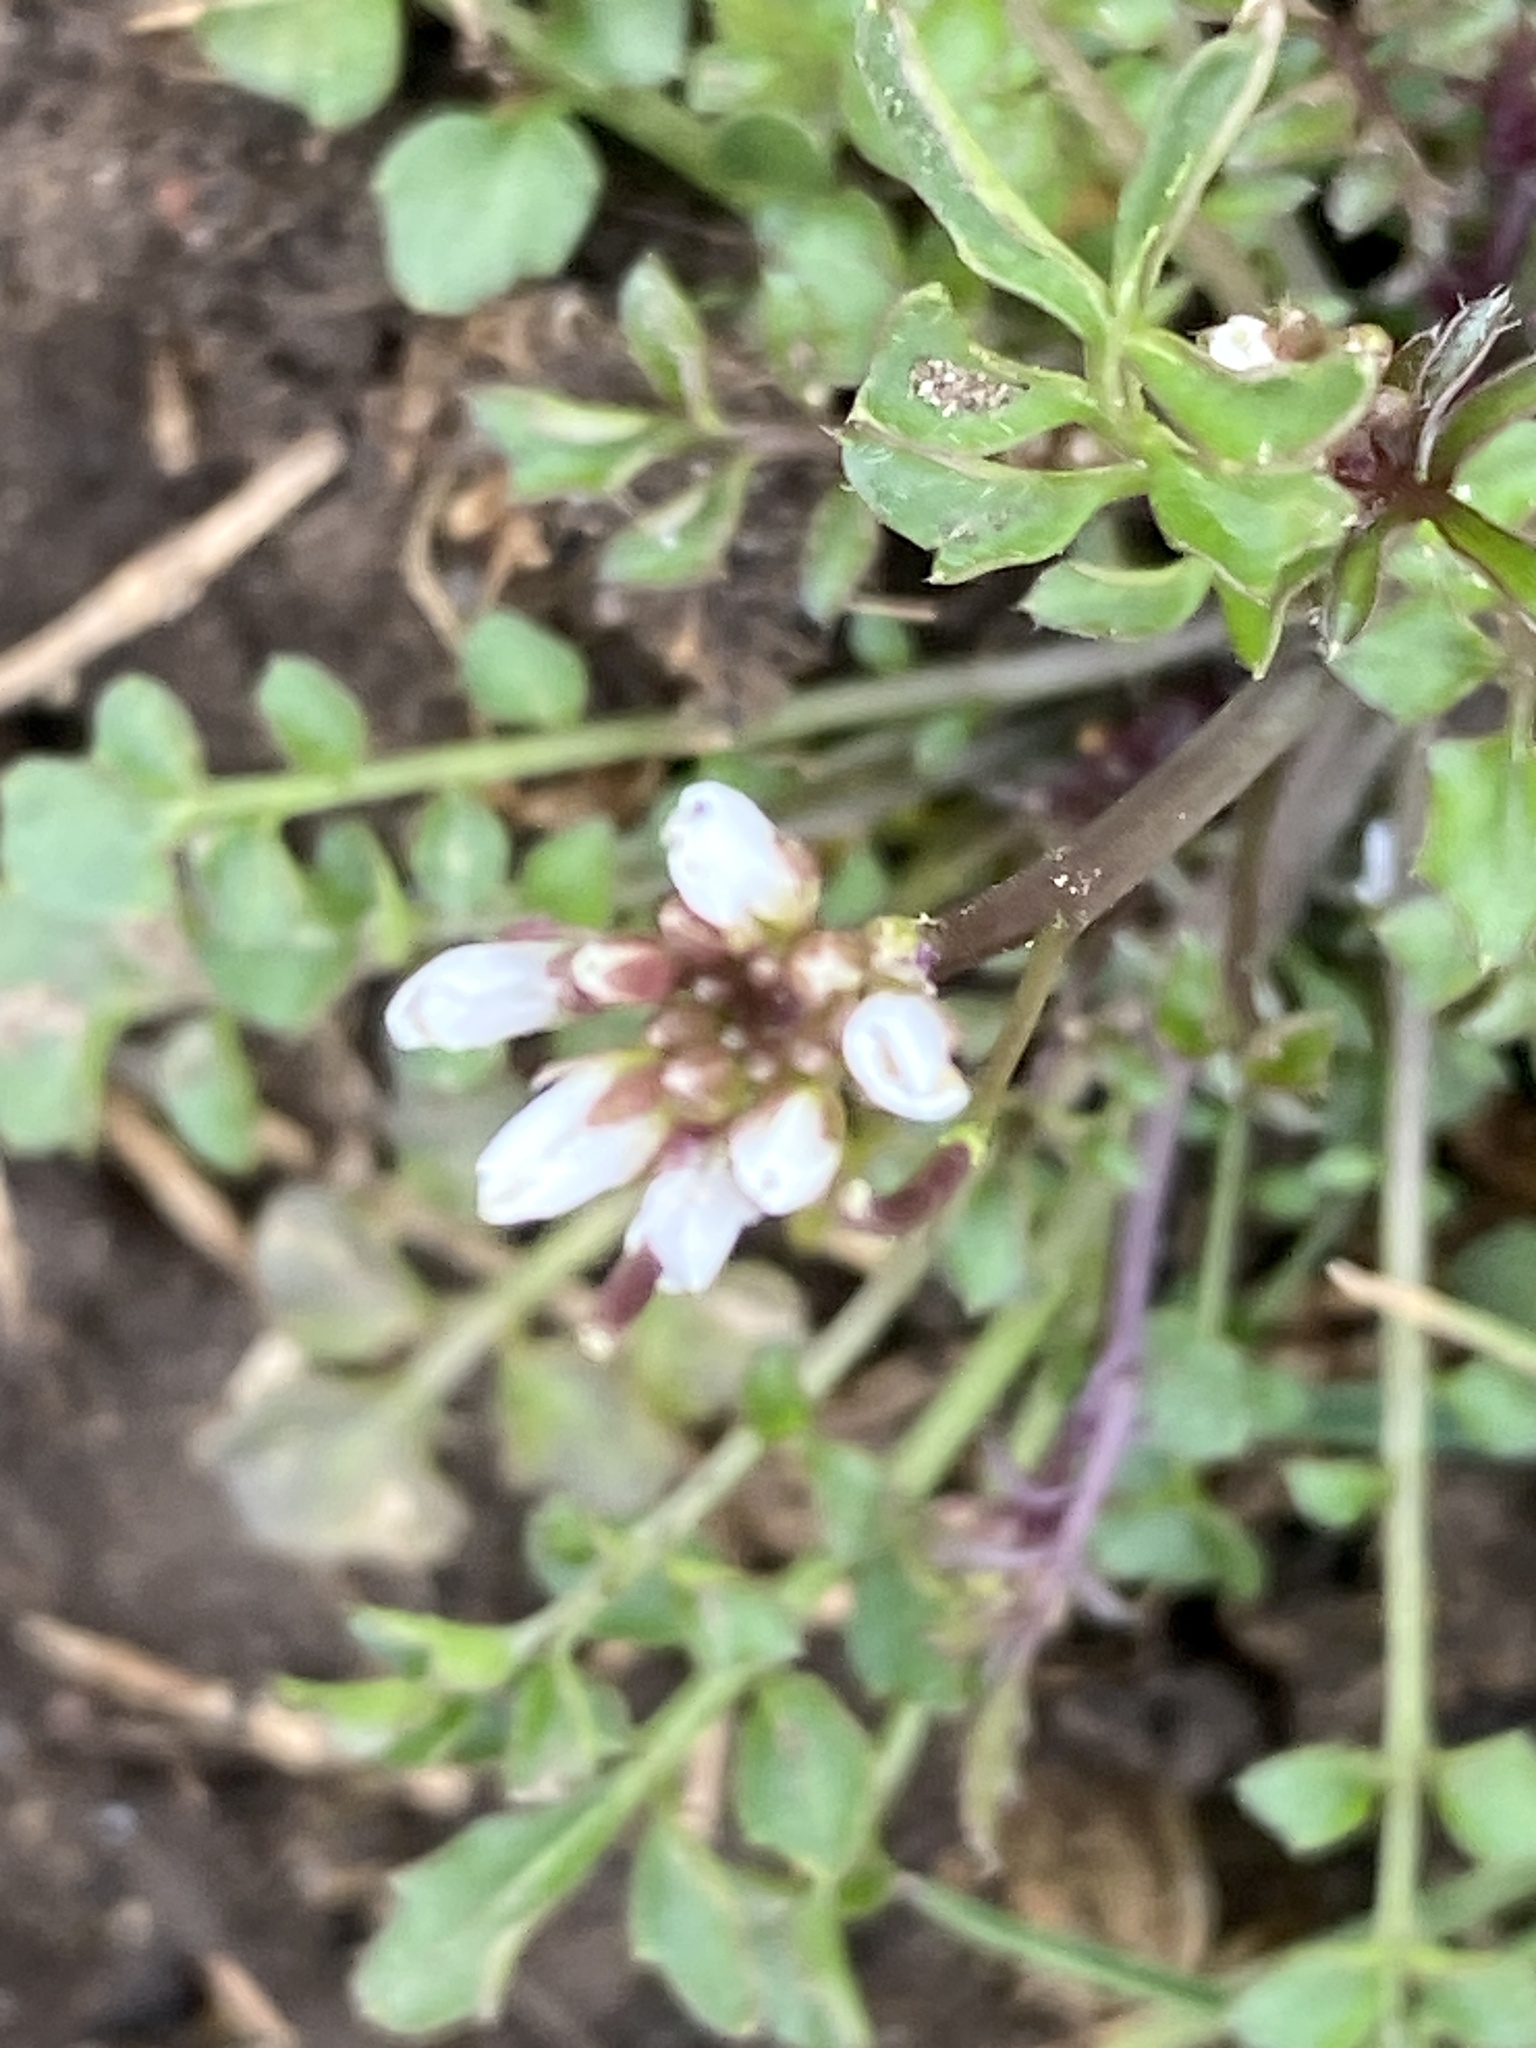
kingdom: Plantae
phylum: Tracheophyta
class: Magnoliopsida
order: Brassicales
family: Brassicaceae
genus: Cardamine
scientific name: Cardamine hirsuta
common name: Hairy bittercress
